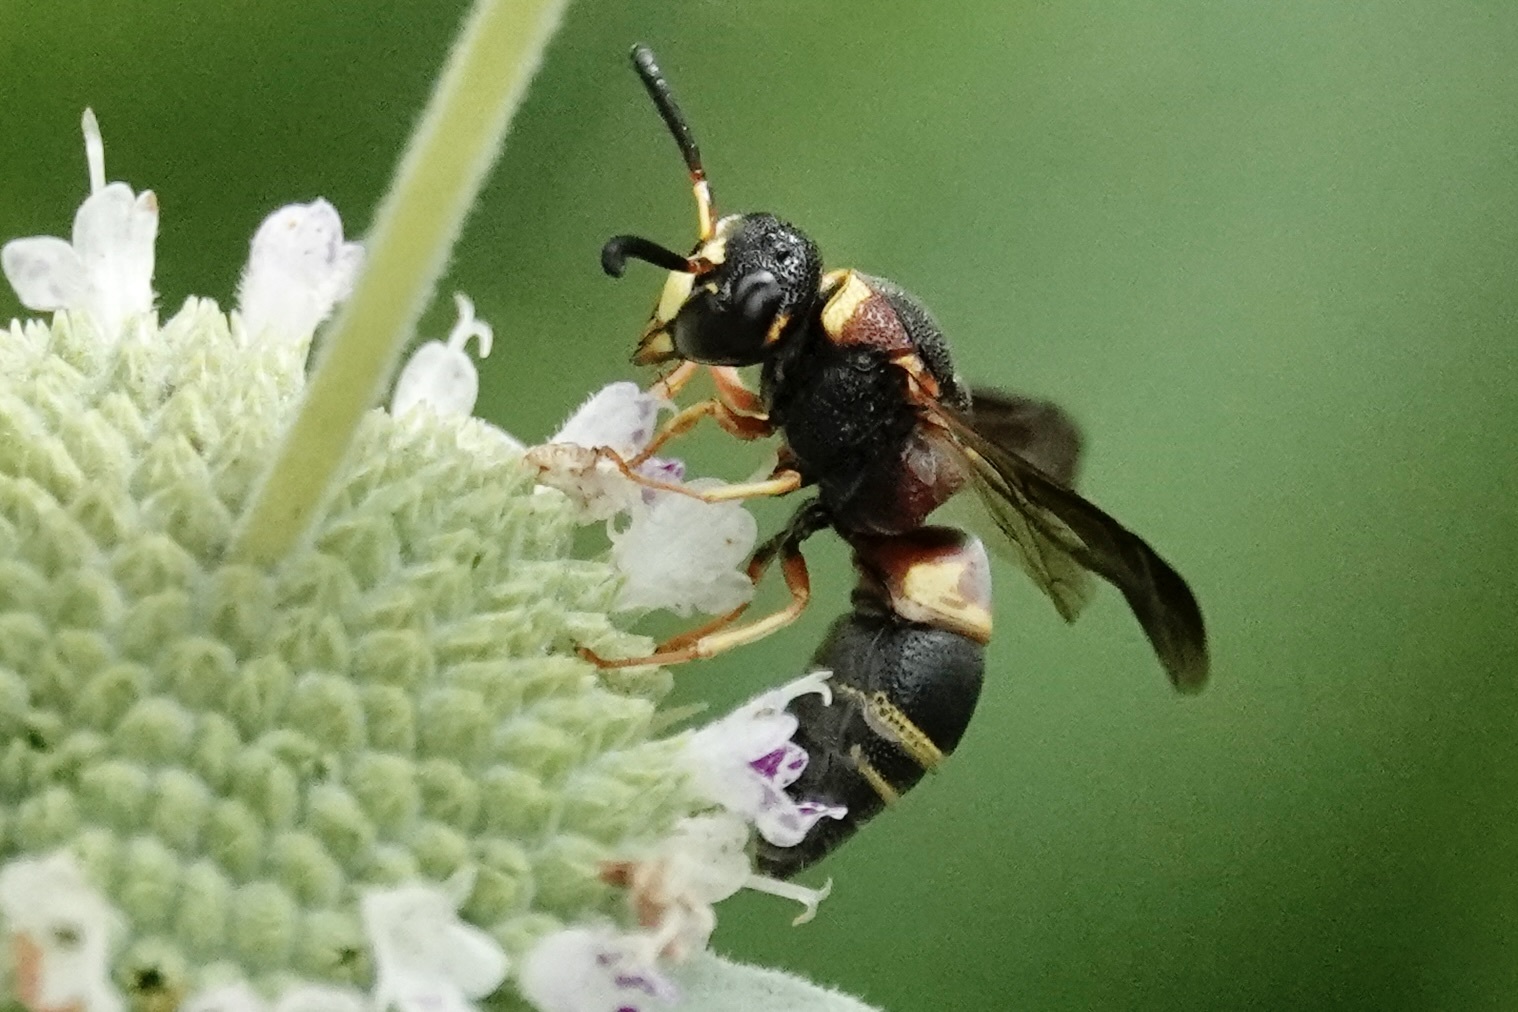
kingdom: Animalia
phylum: Arthropoda
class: Insecta
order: Hymenoptera
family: Eumenidae
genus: Euodynerus
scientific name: Euodynerus hidalgo
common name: Wasp
